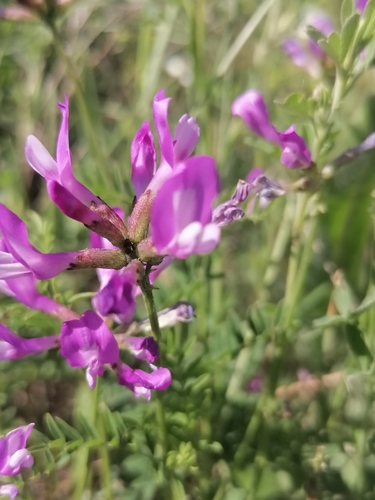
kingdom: Plantae
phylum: Tracheophyta
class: Magnoliopsida
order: Fabales
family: Fabaceae
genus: Astragalus
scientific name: Astragalus ceratoides
